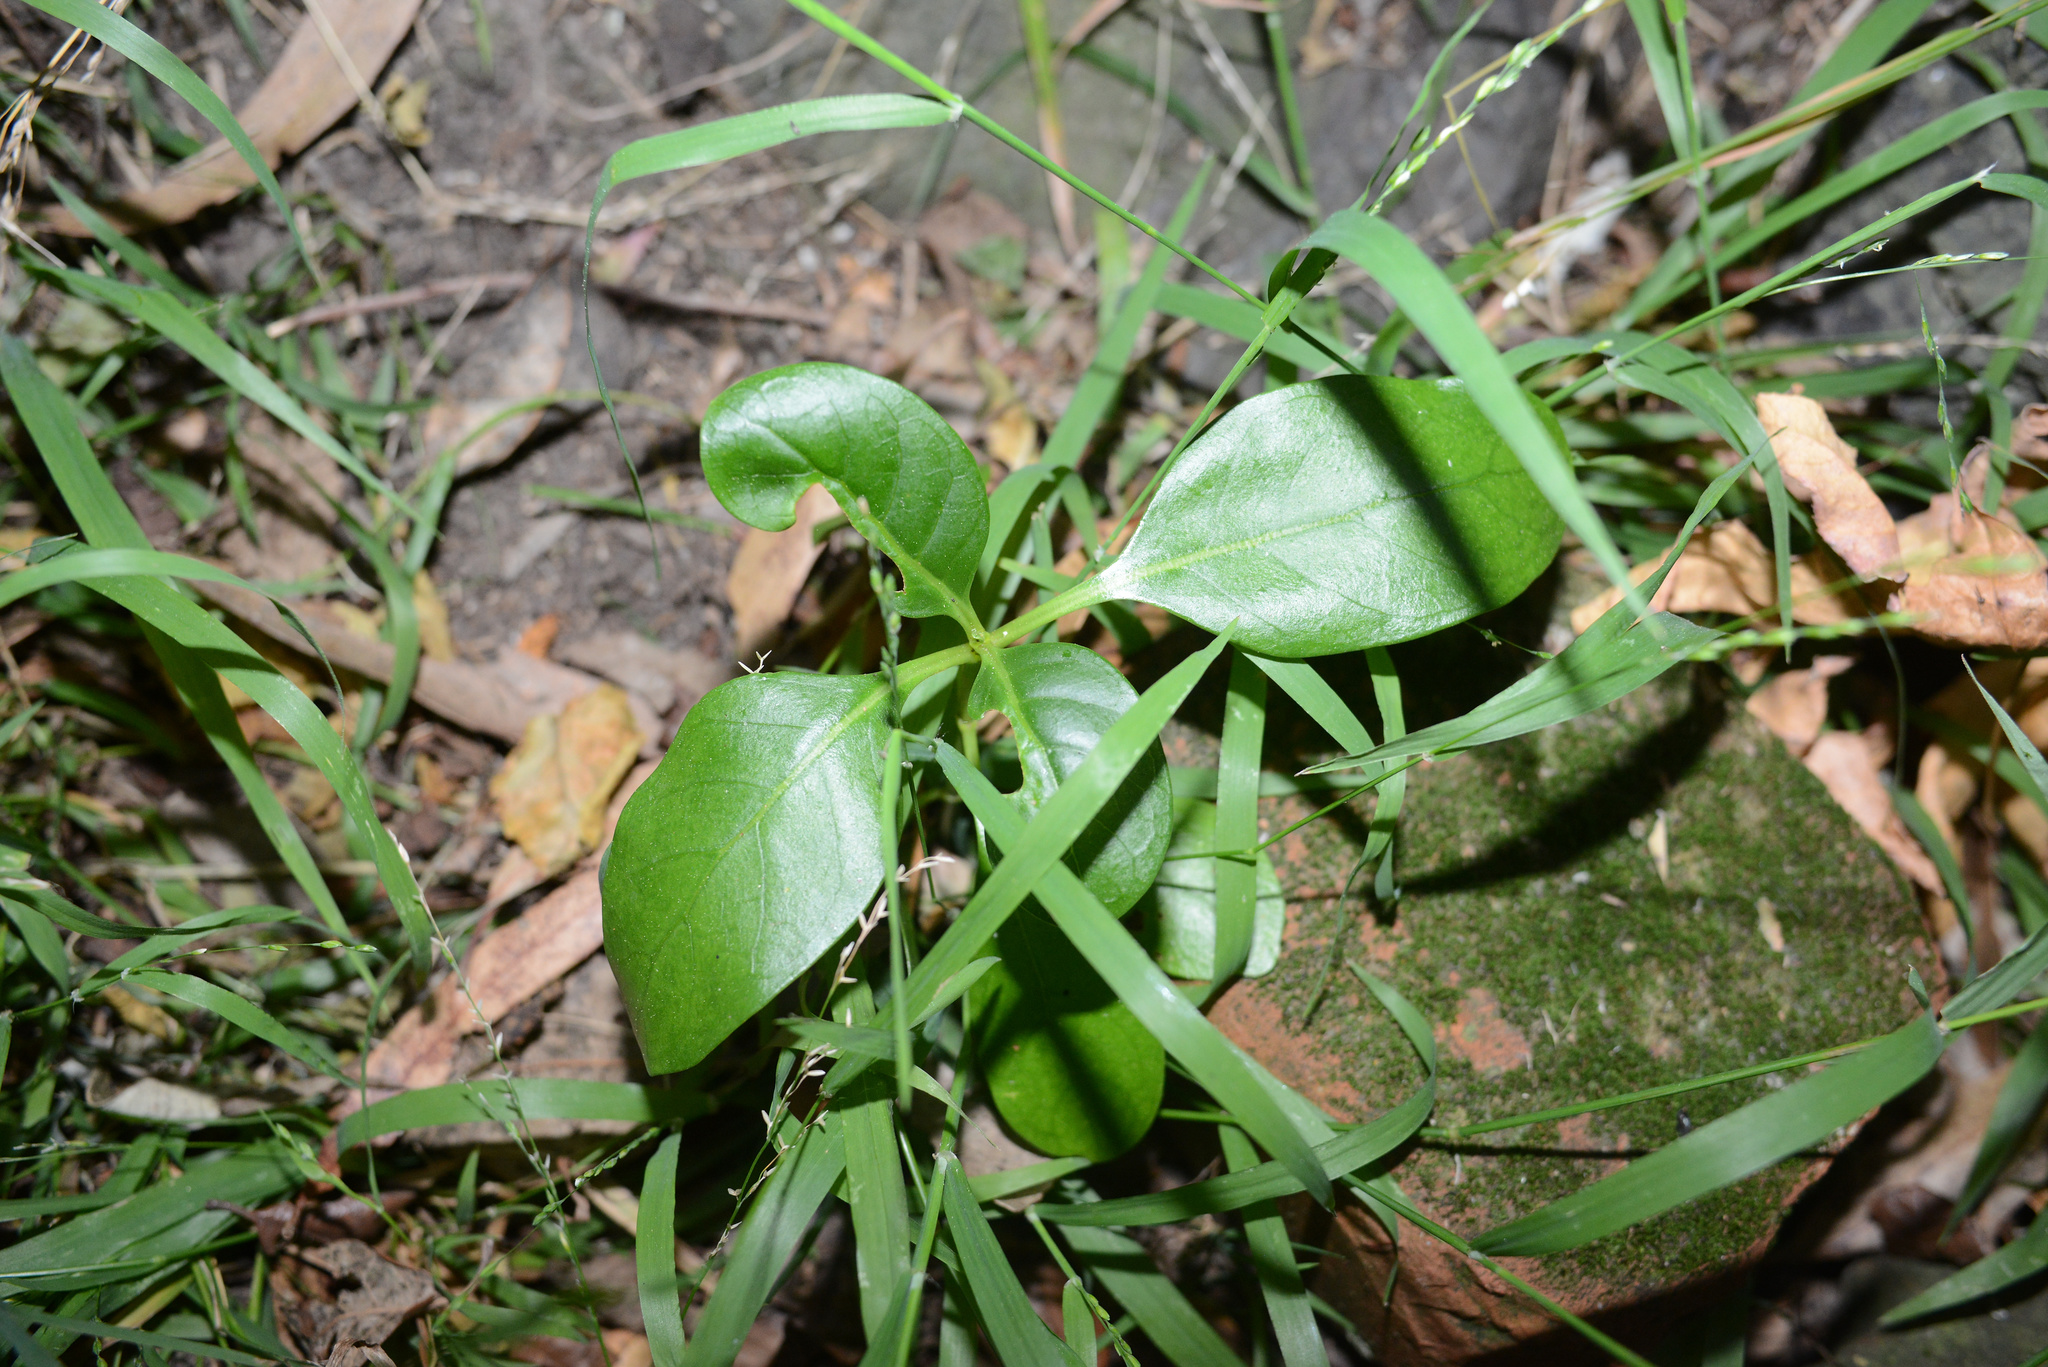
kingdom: Plantae
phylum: Tracheophyta
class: Magnoliopsida
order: Gentianales
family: Rubiaceae
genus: Coprosma
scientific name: Coprosma repens
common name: Tree bedstraw
